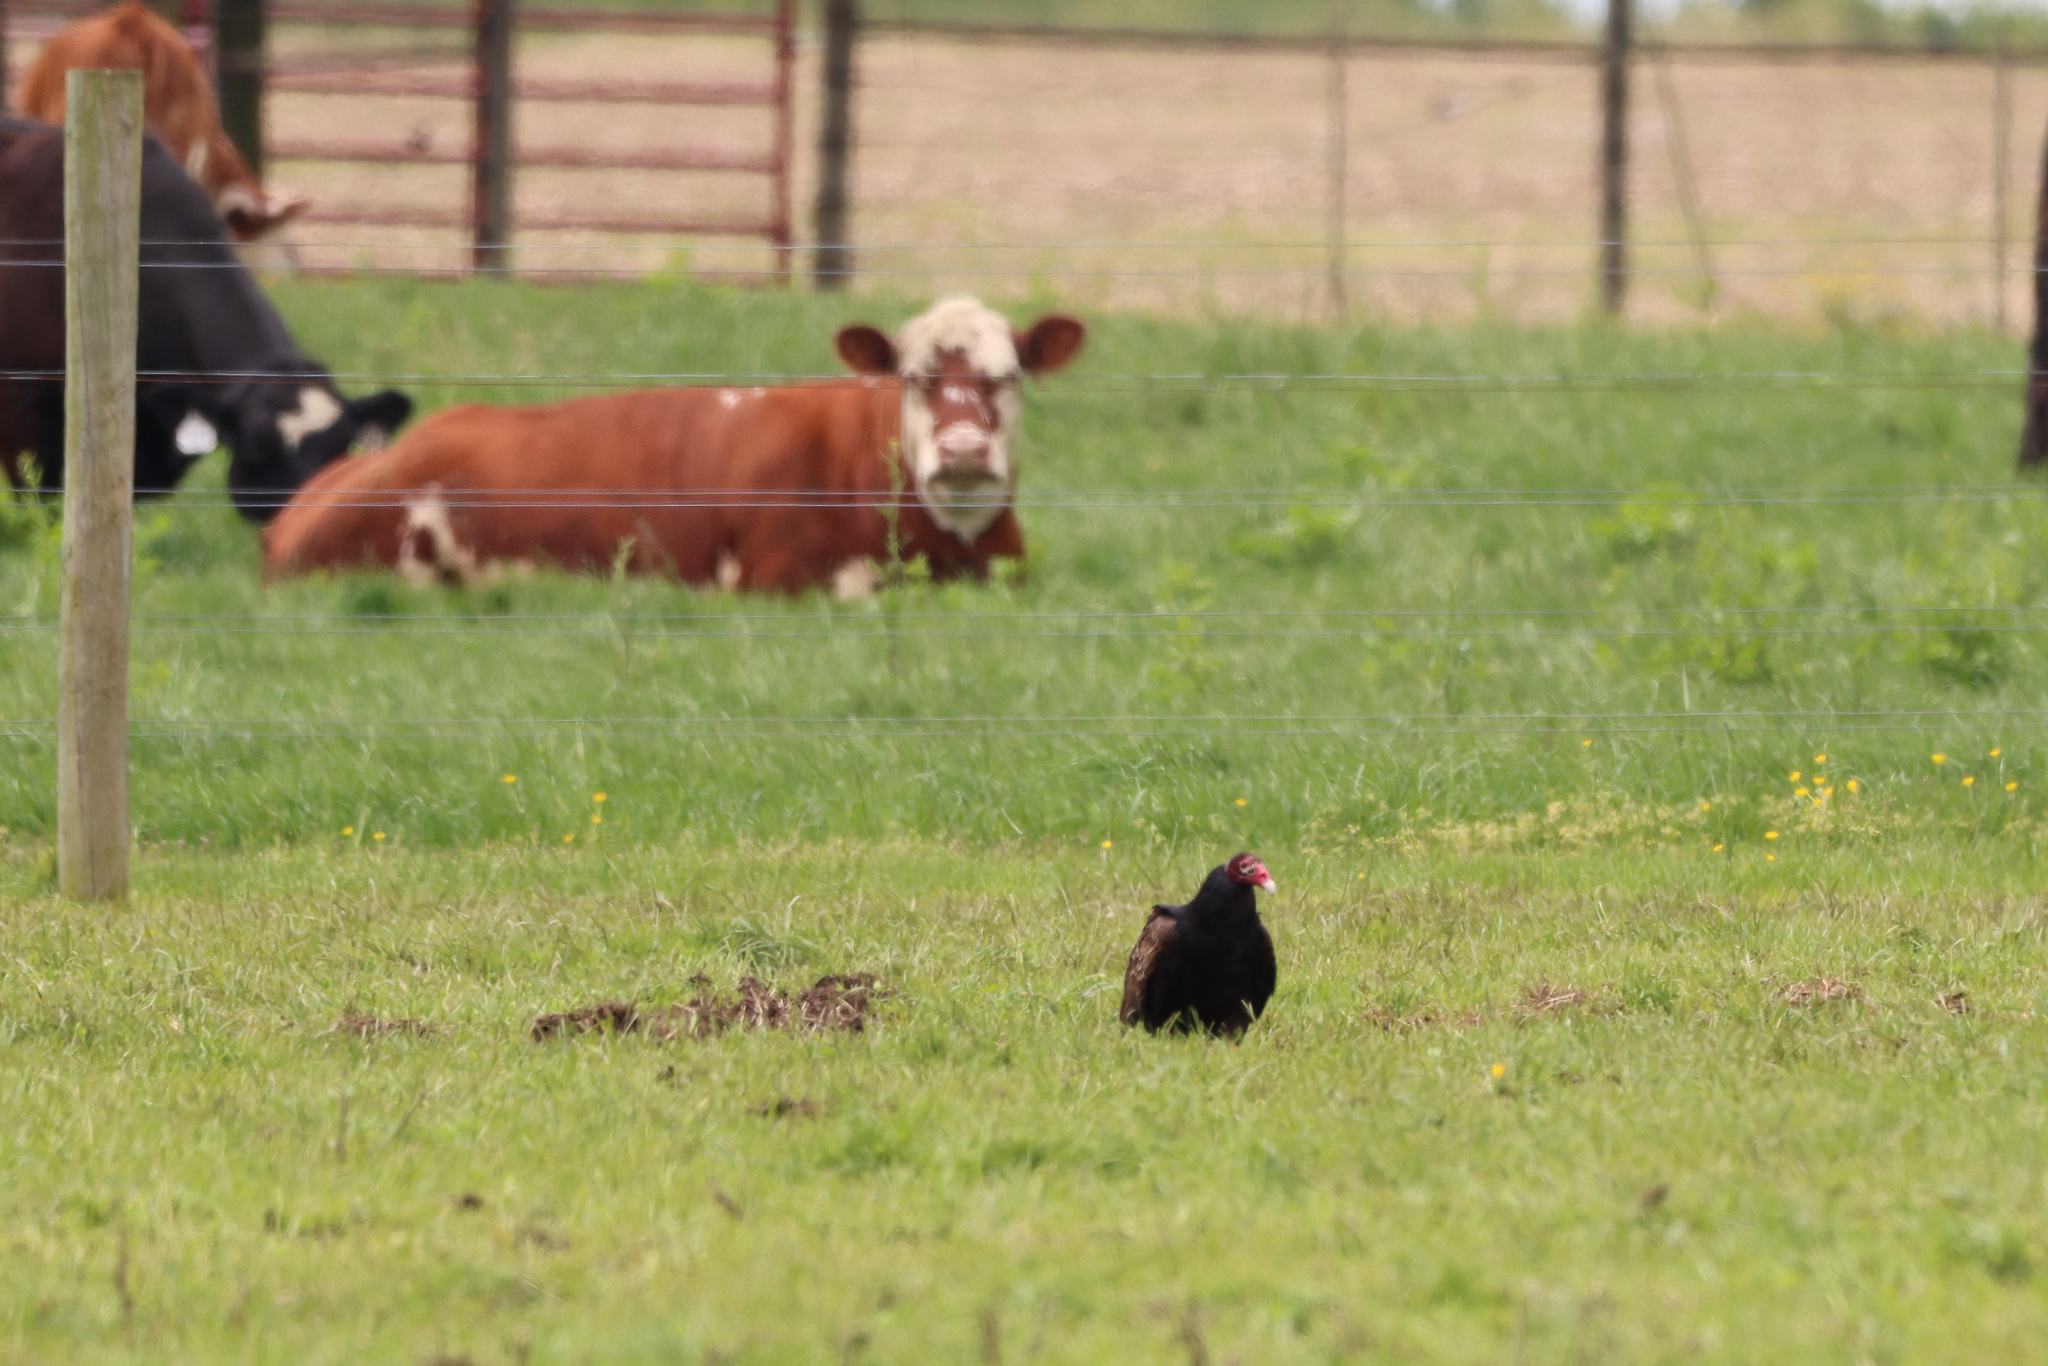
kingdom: Animalia
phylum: Chordata
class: Aves
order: Accipitriformes
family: Cathartidae
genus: Cathartes
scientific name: Cathartes aura
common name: Turkey vulture
